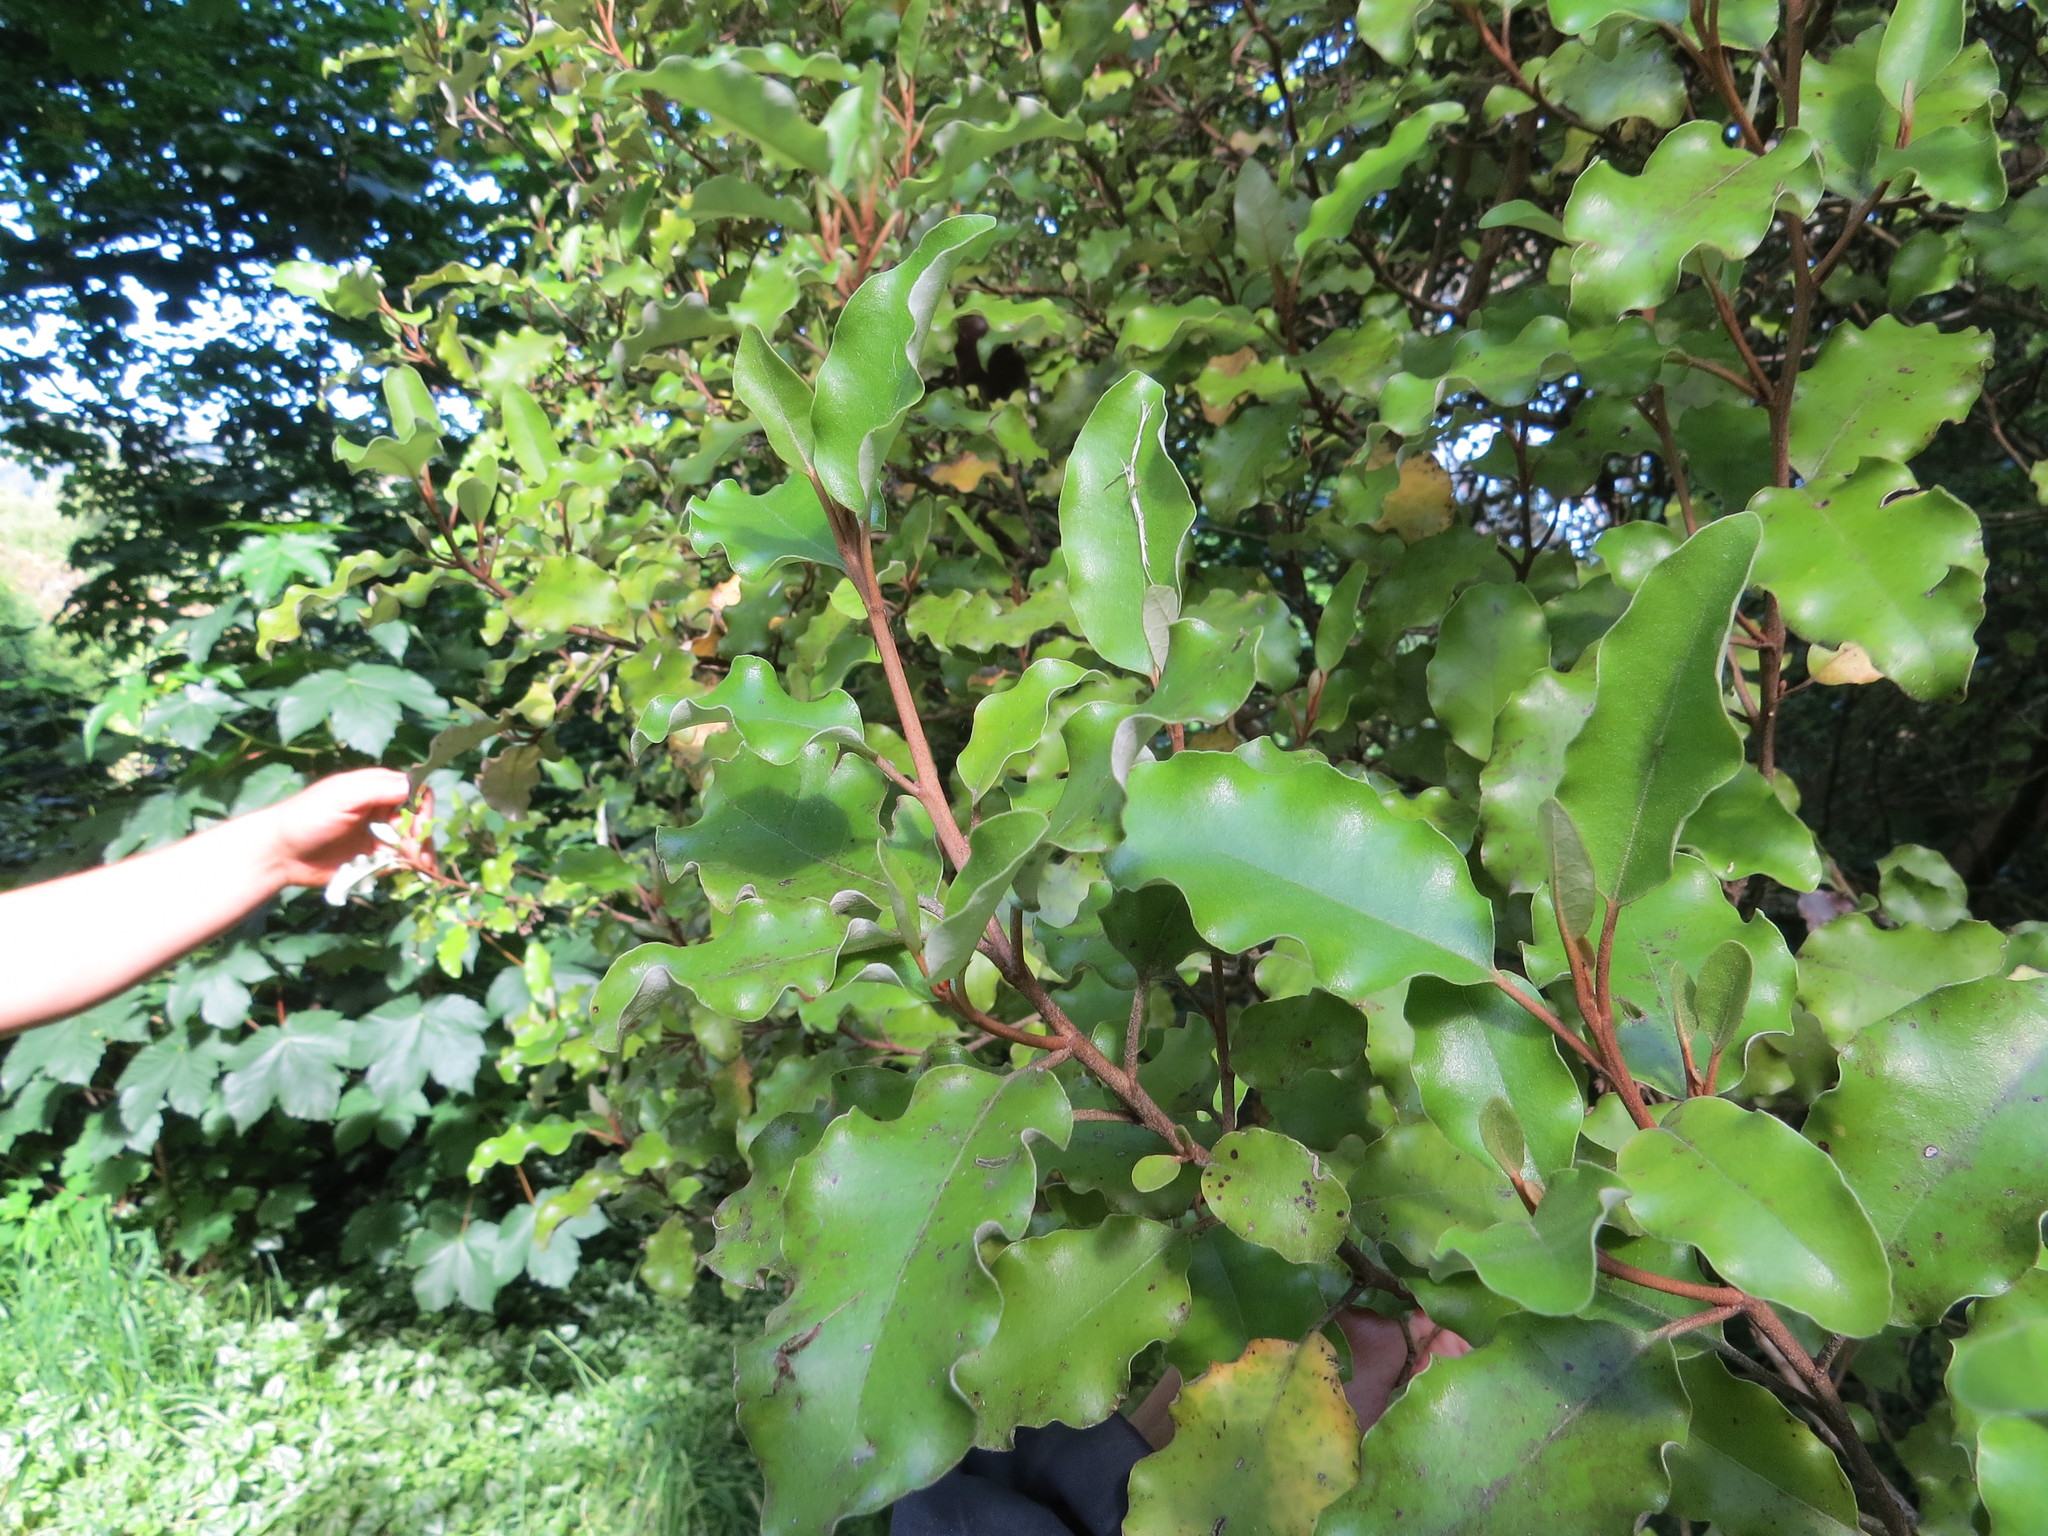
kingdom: Plantae
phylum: Tracheophyta
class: Magnoliopsida
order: Asterales
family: Asteraceae
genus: Olearia
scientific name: Olearia paniculata
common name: Akiraho
